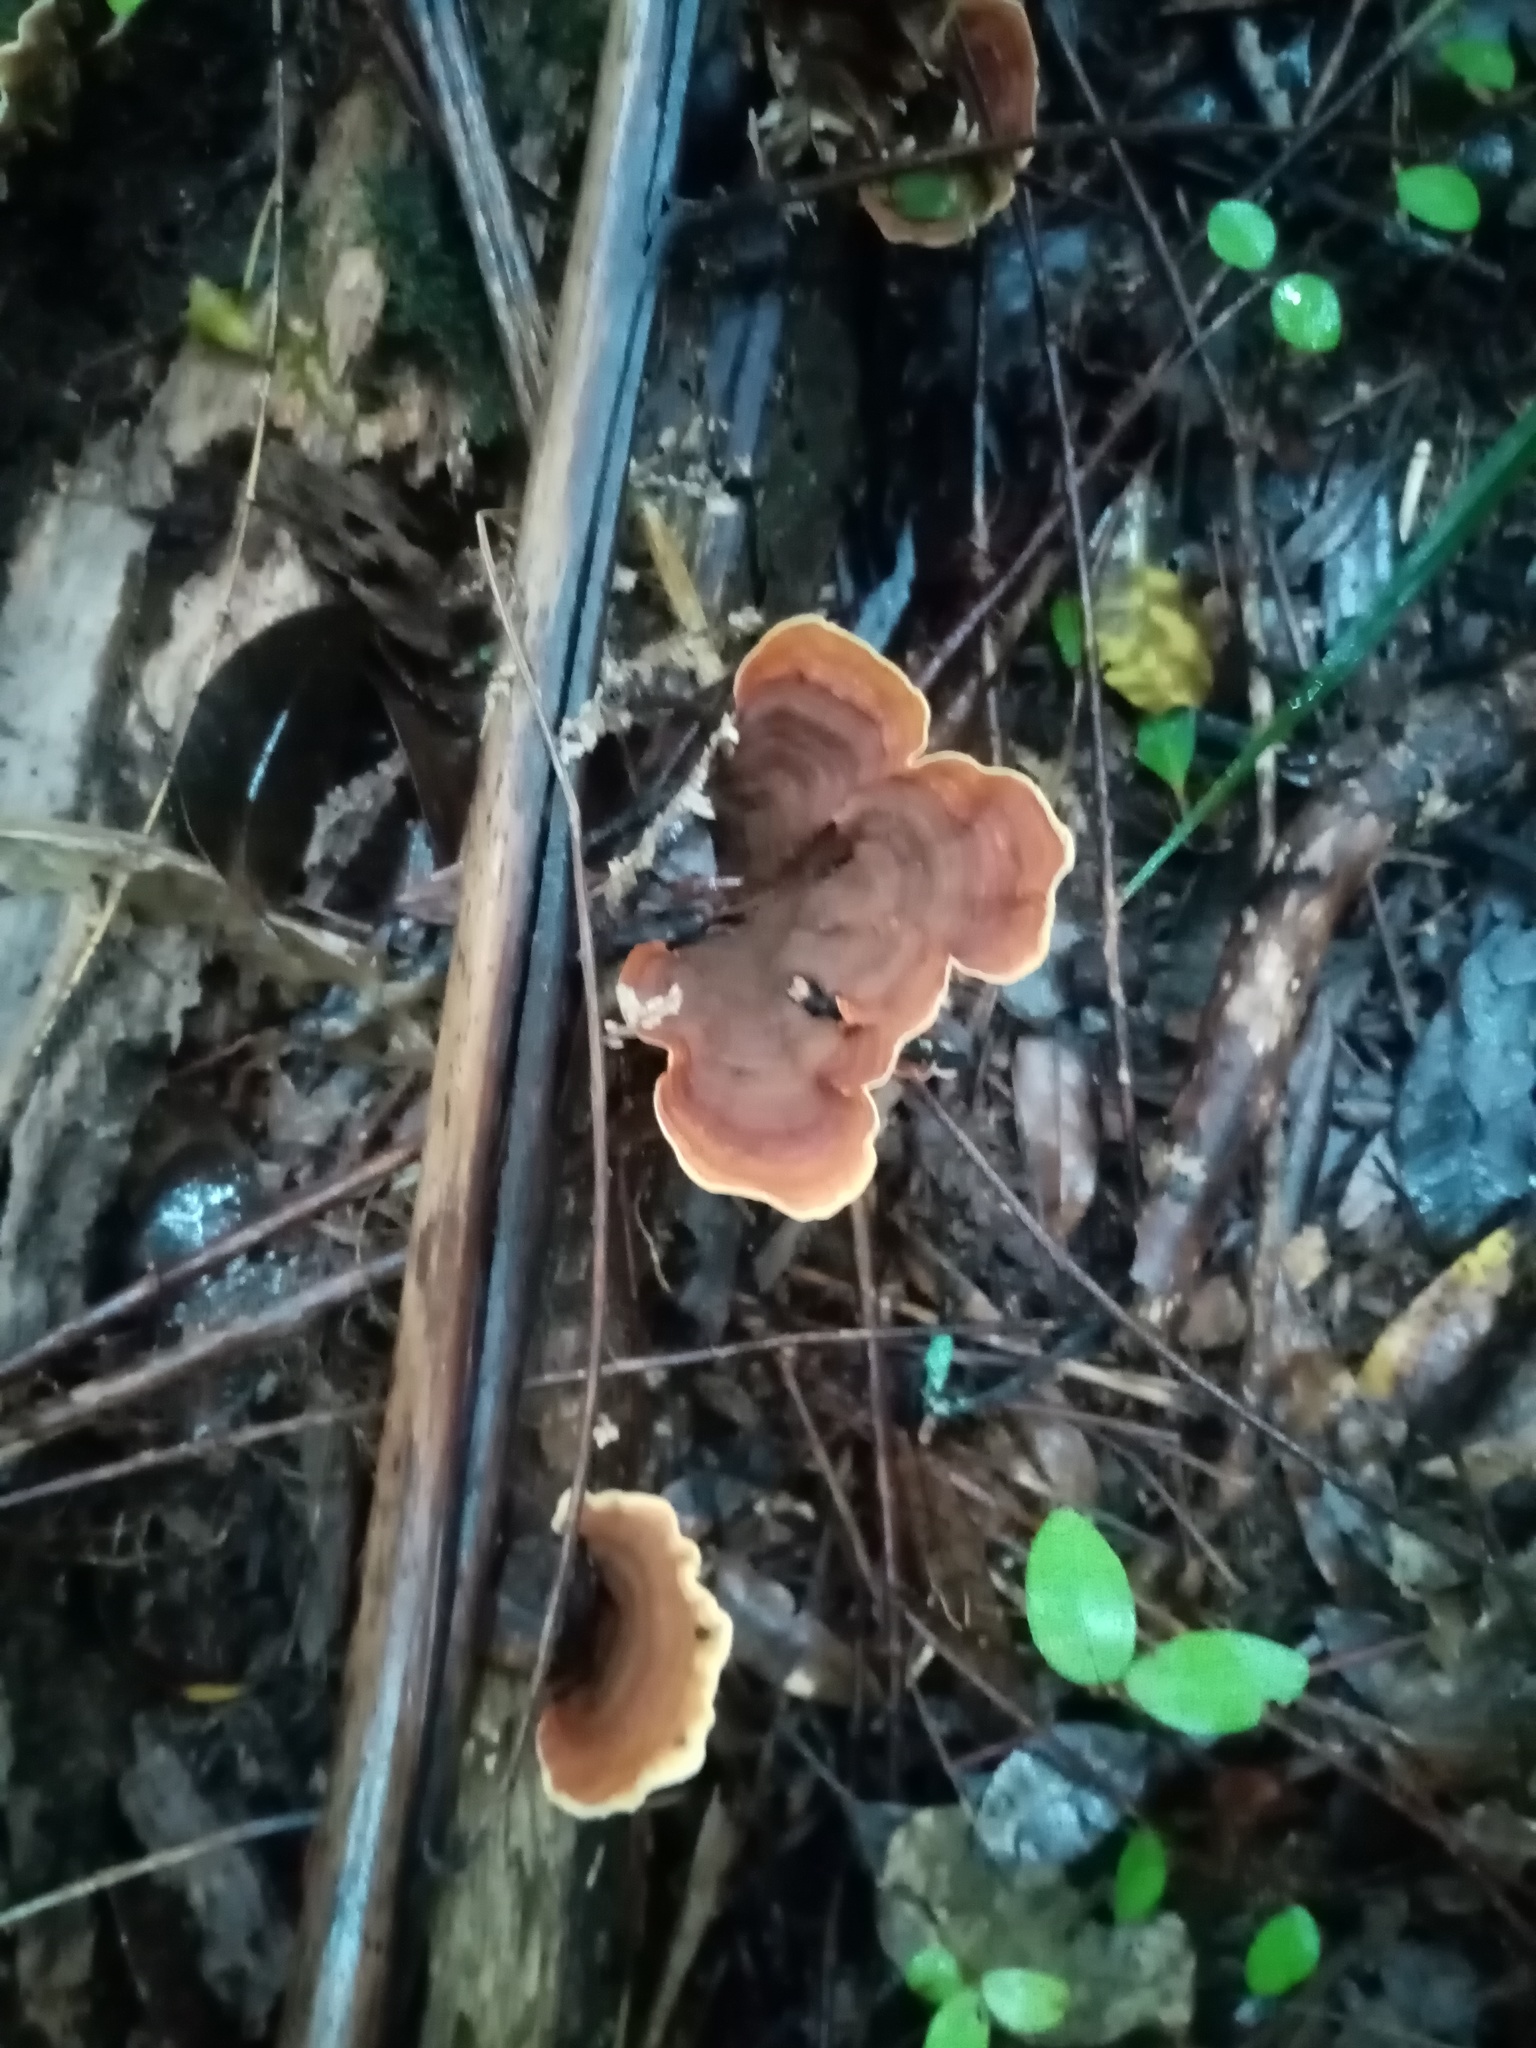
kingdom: Fungi
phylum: Basidiomycota
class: Agaricomycetes
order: Russulales
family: Stereaceae
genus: Stereum
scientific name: Stereum versicolor
